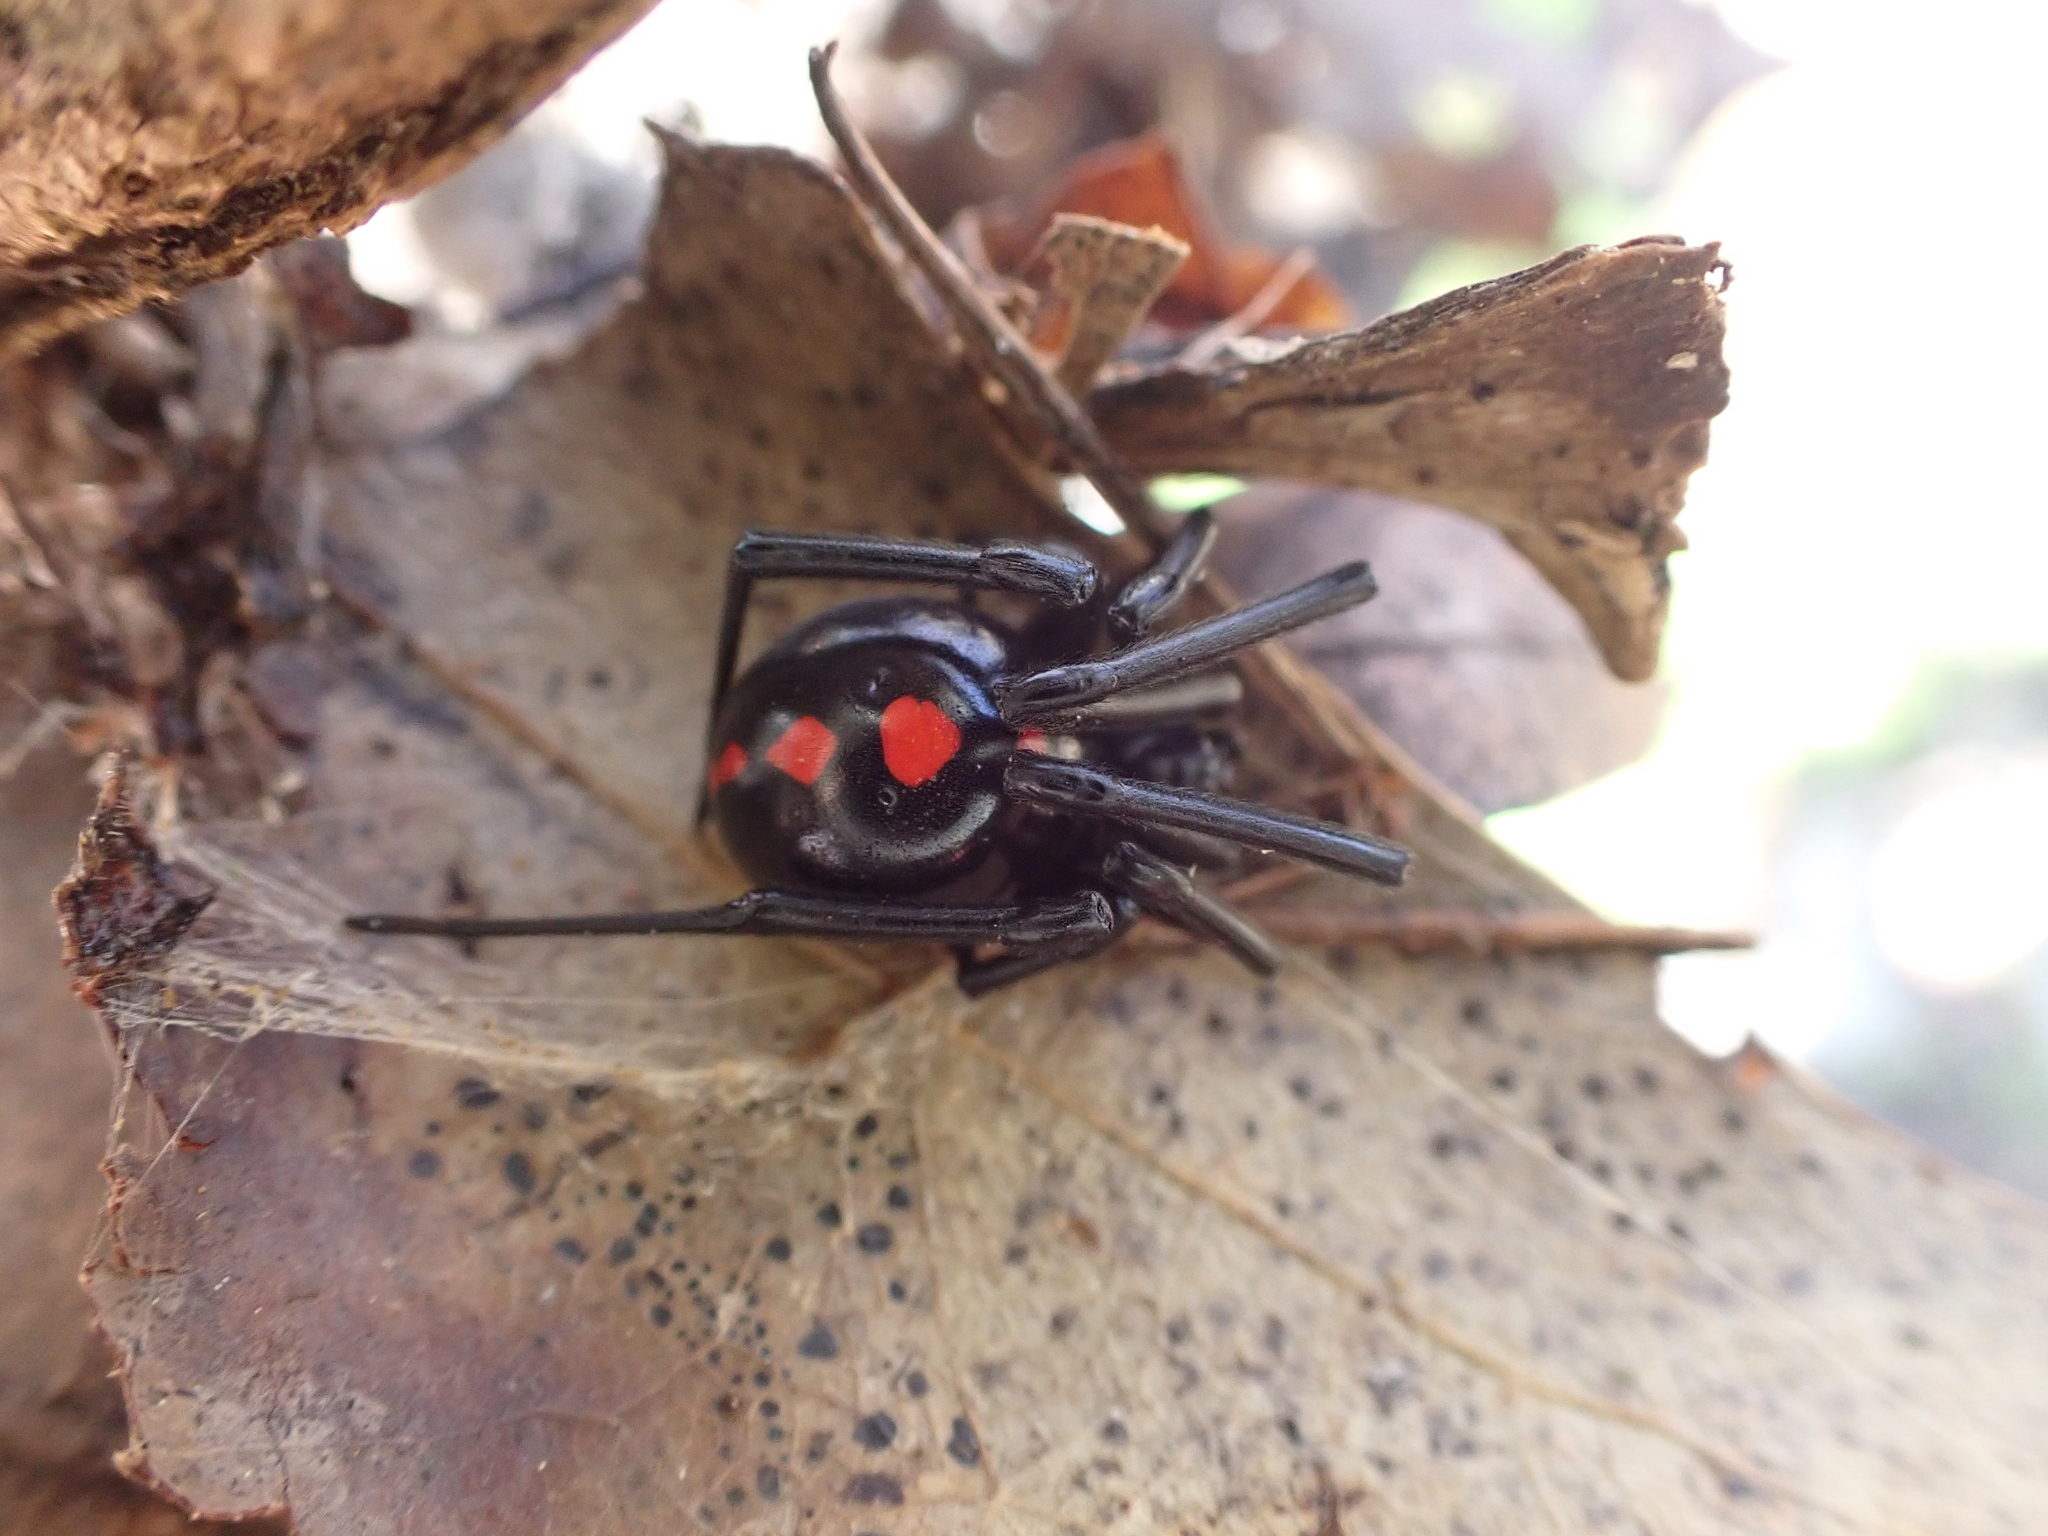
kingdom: Animalia
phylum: Arthropoda
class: Arachnida
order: Araneae
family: Theridiidae
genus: Latrodectus
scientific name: Latrodectus variolus
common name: Northern black widow
